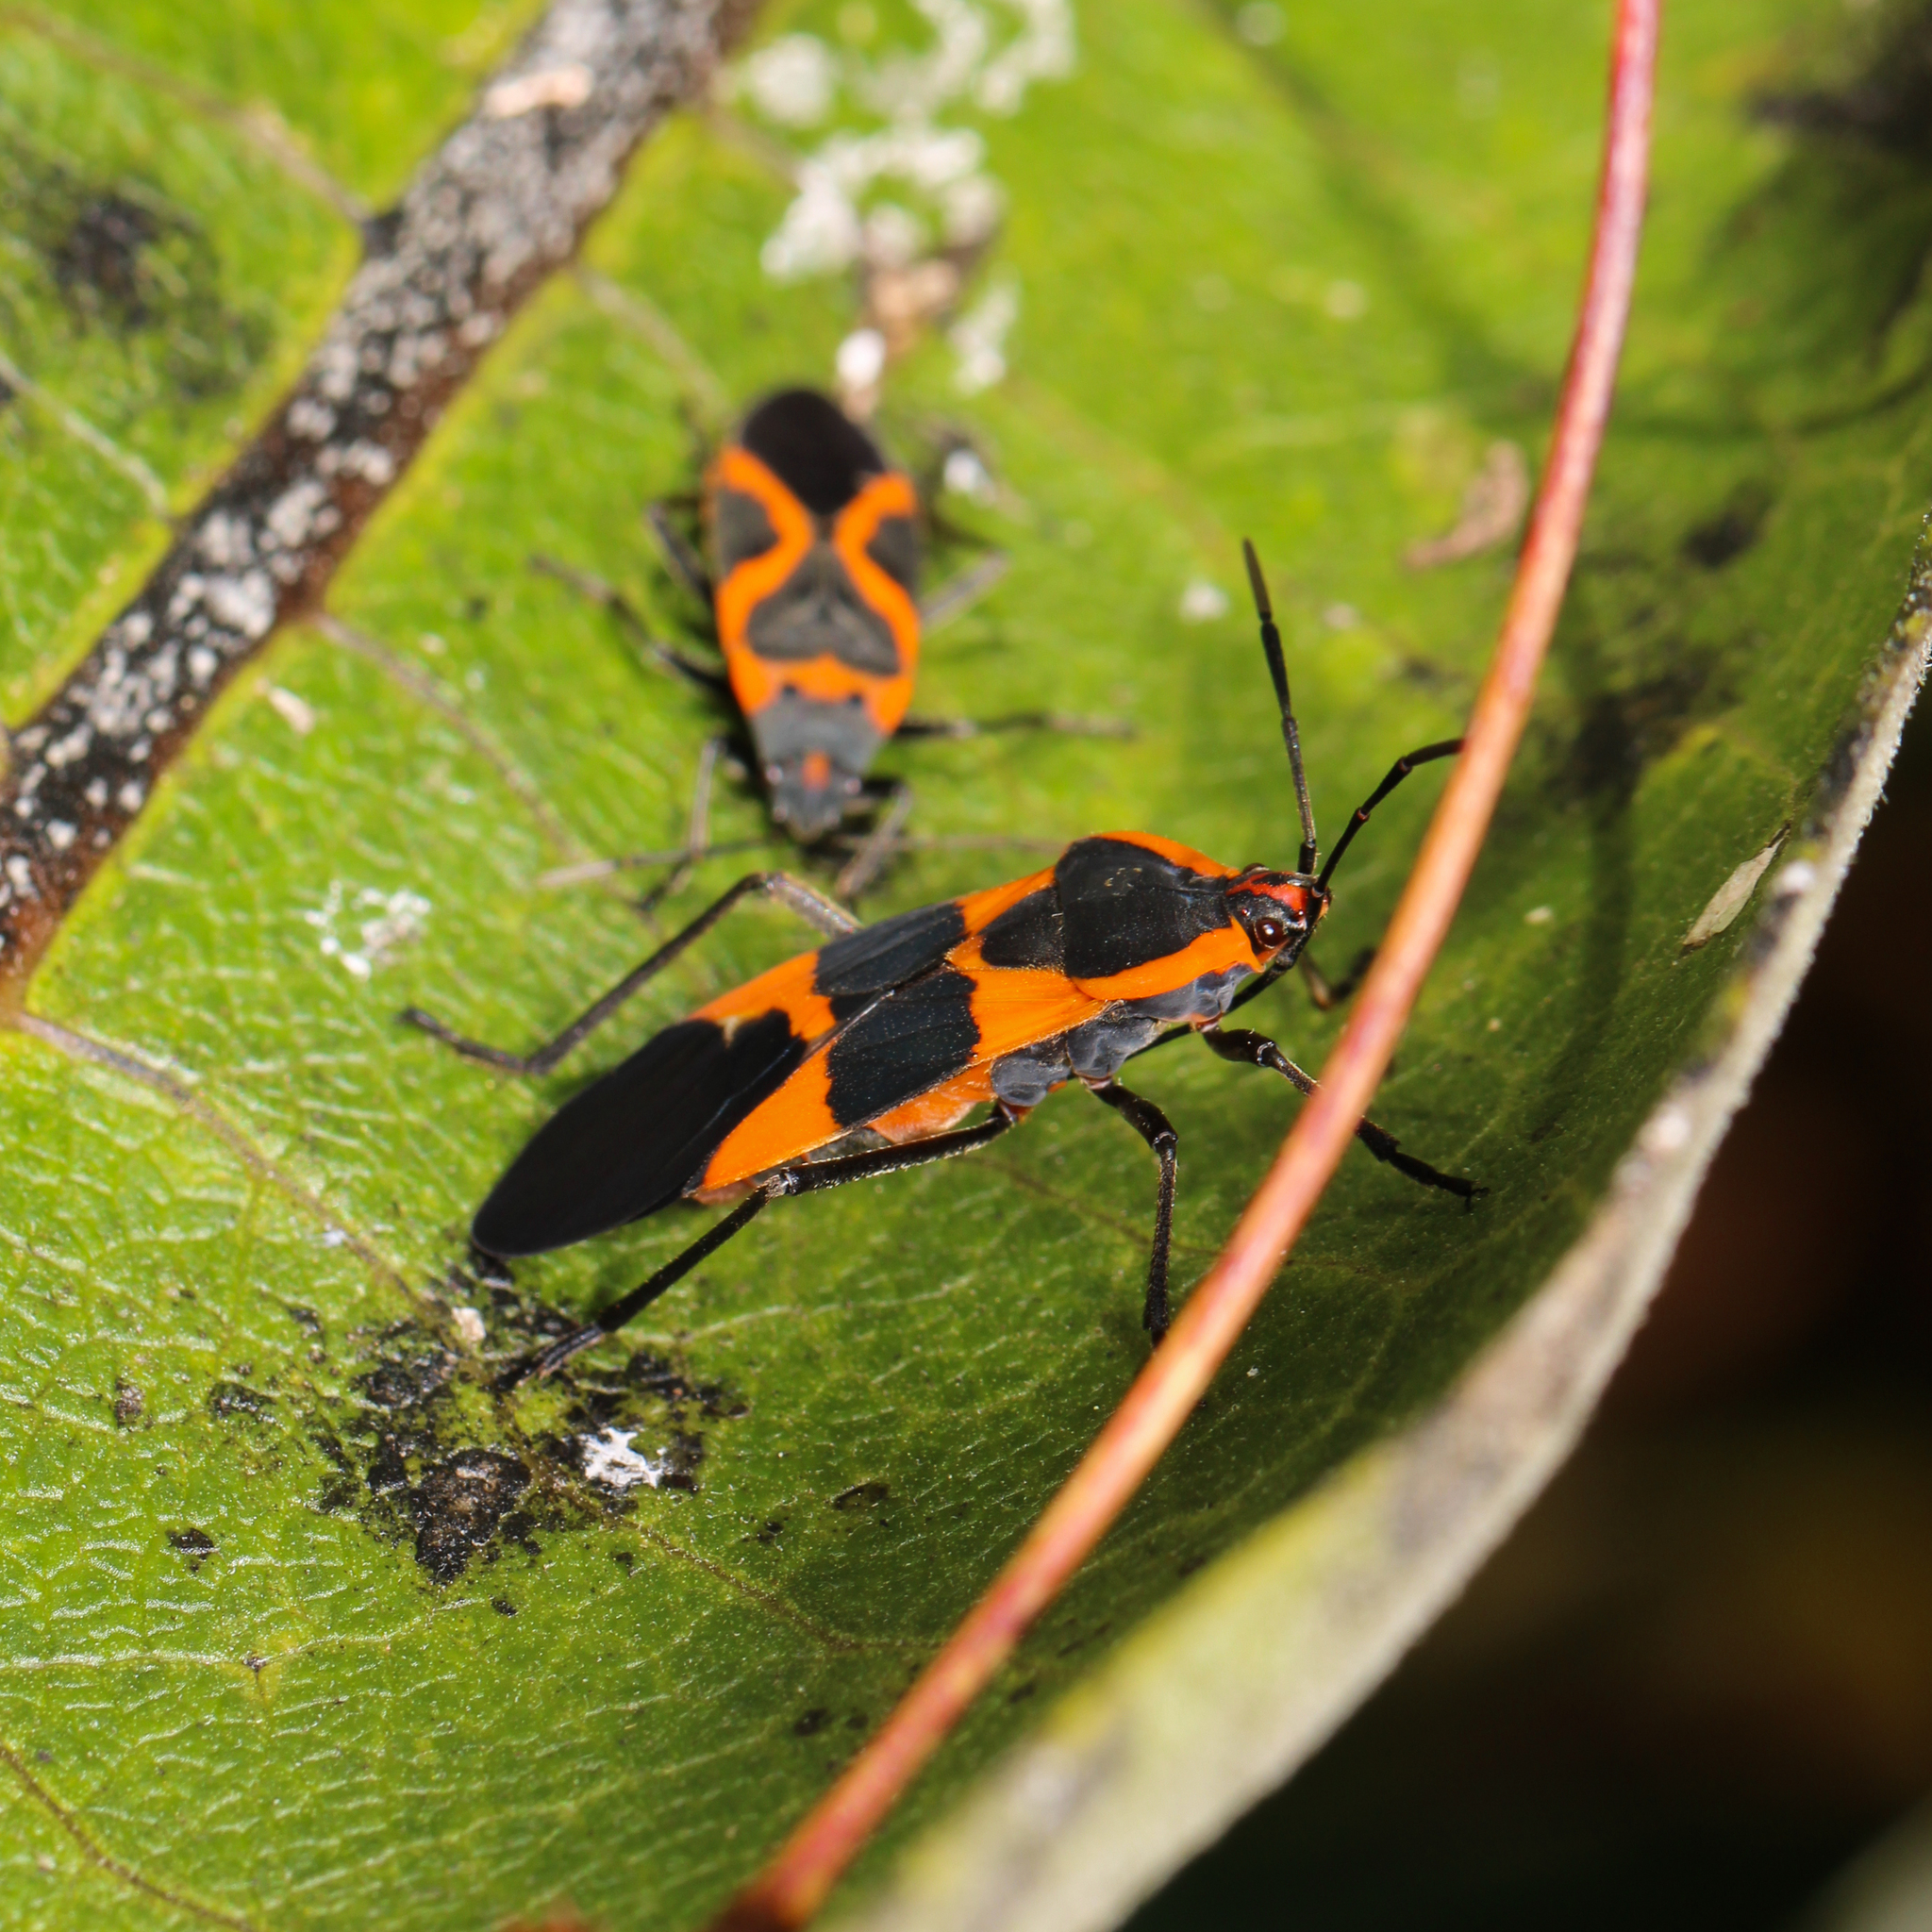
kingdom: Animalia
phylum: Arthropoda
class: Insecta
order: Hemiptera
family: Lygaeidae
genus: Oncopeltus
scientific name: Oncopeltus fasciatus
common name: Large milkweed bug
